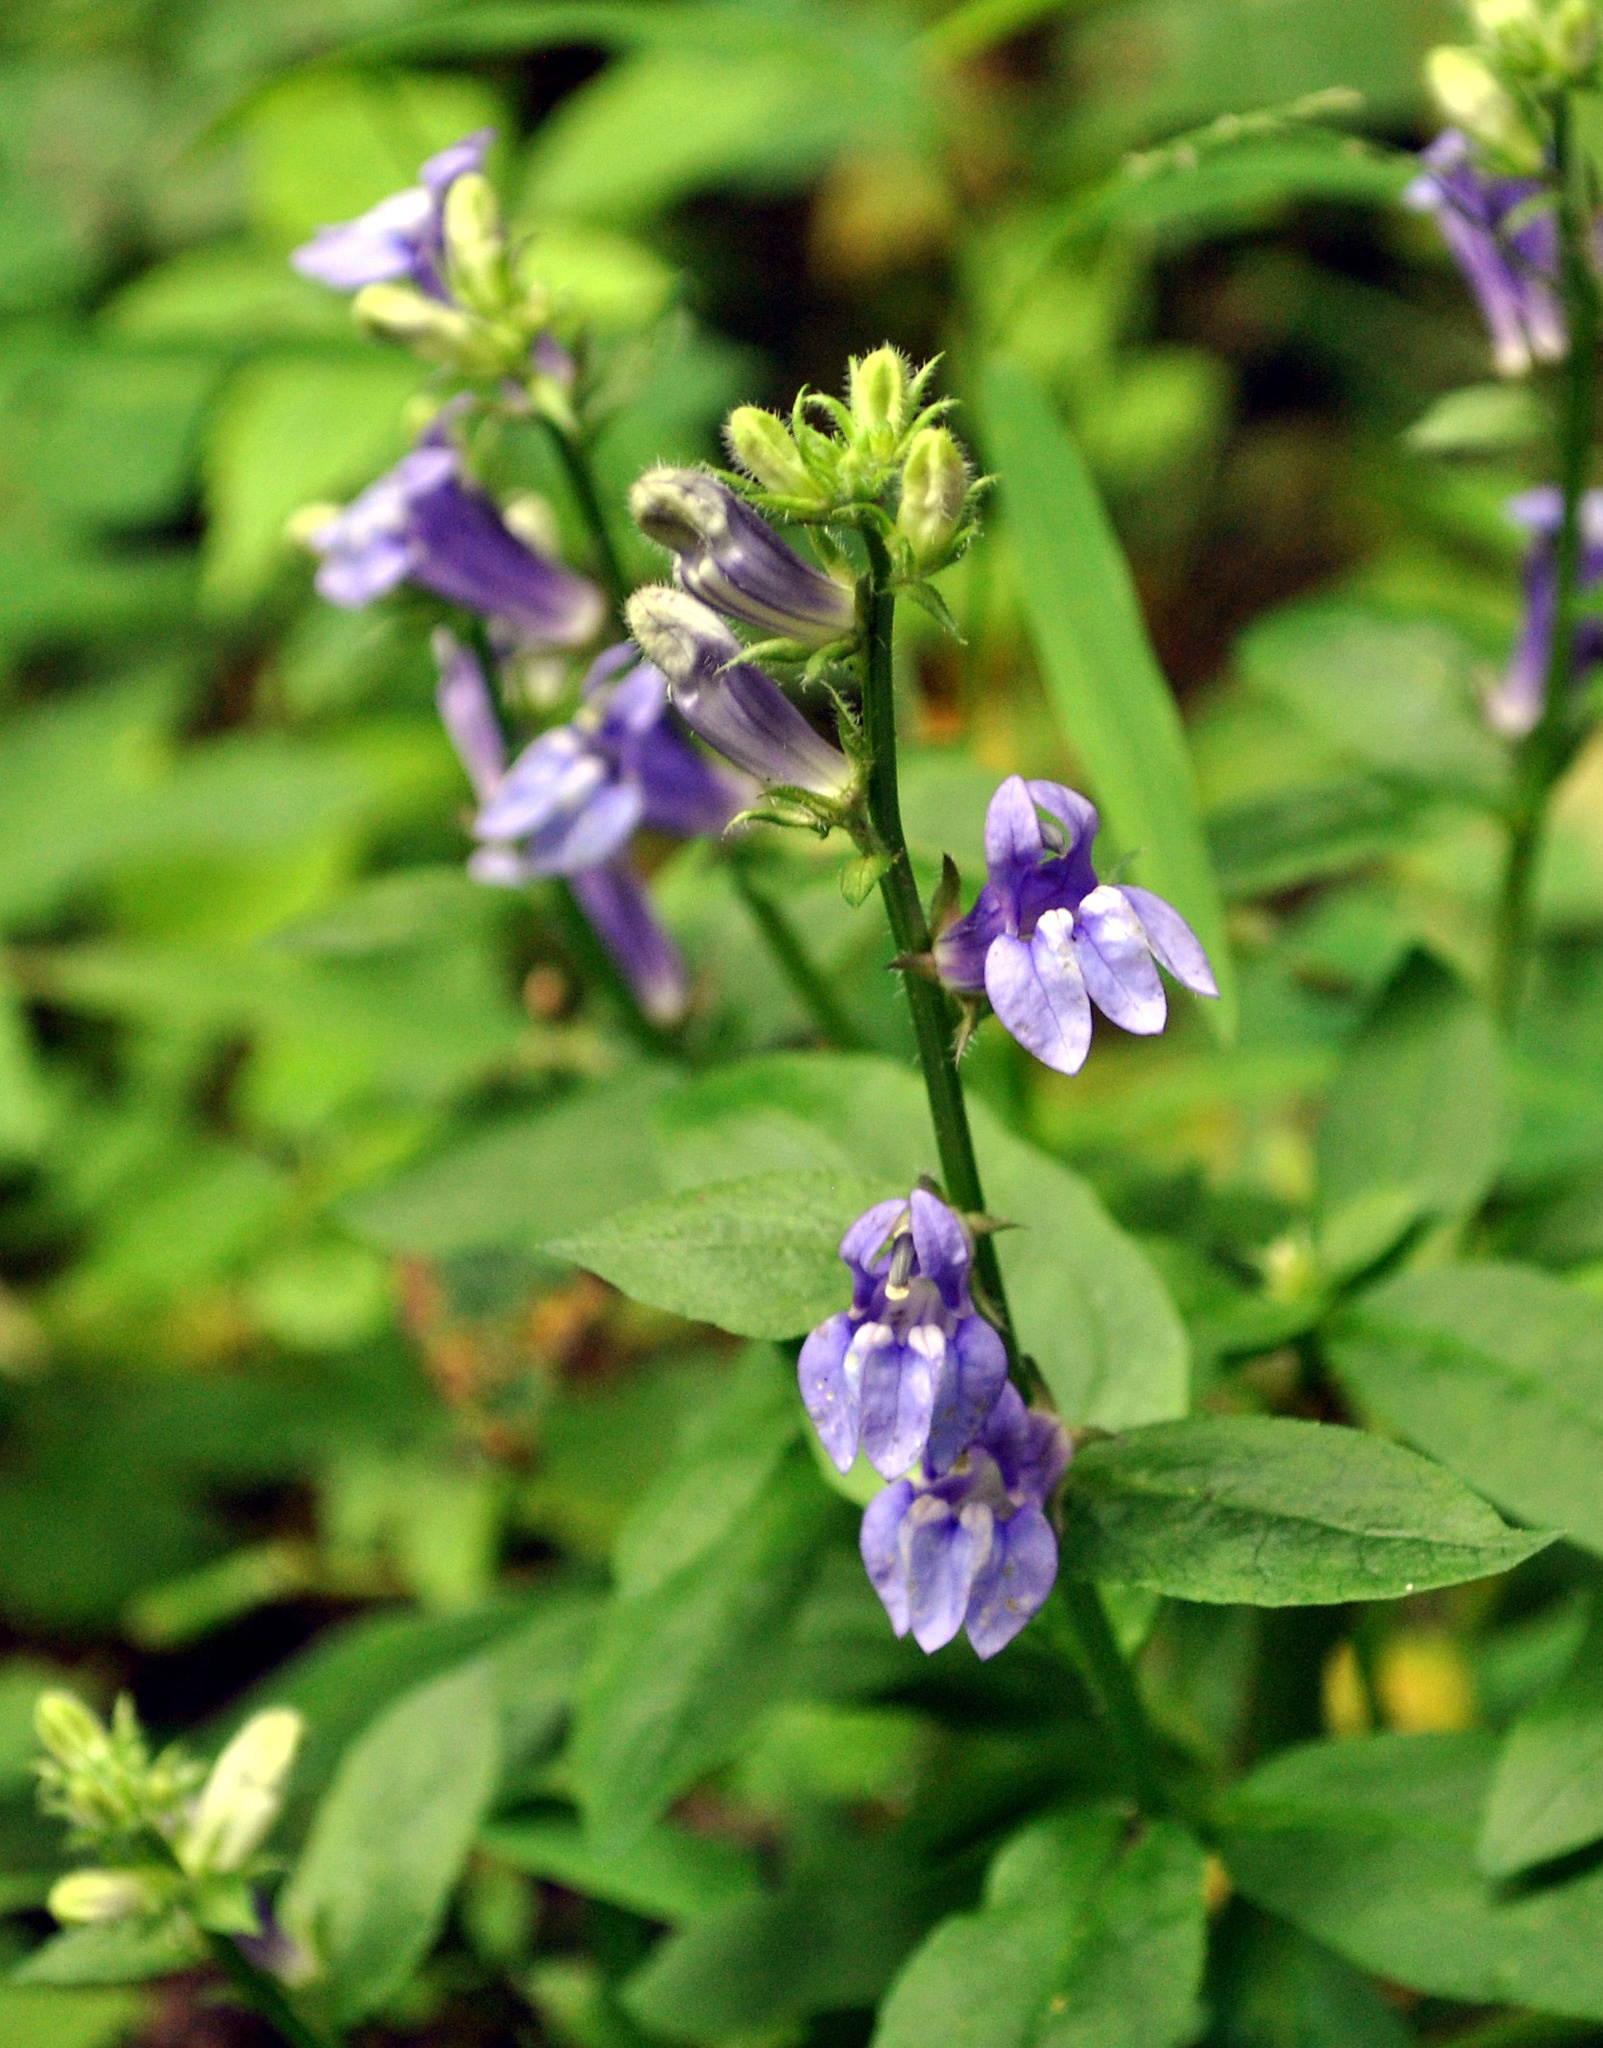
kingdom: Plantae
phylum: Tracheophyta
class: Magnoliopsida
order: Asterales
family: Campanulaceae
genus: Lobelia
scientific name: Lobelia siphilitica
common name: Great lobelia
